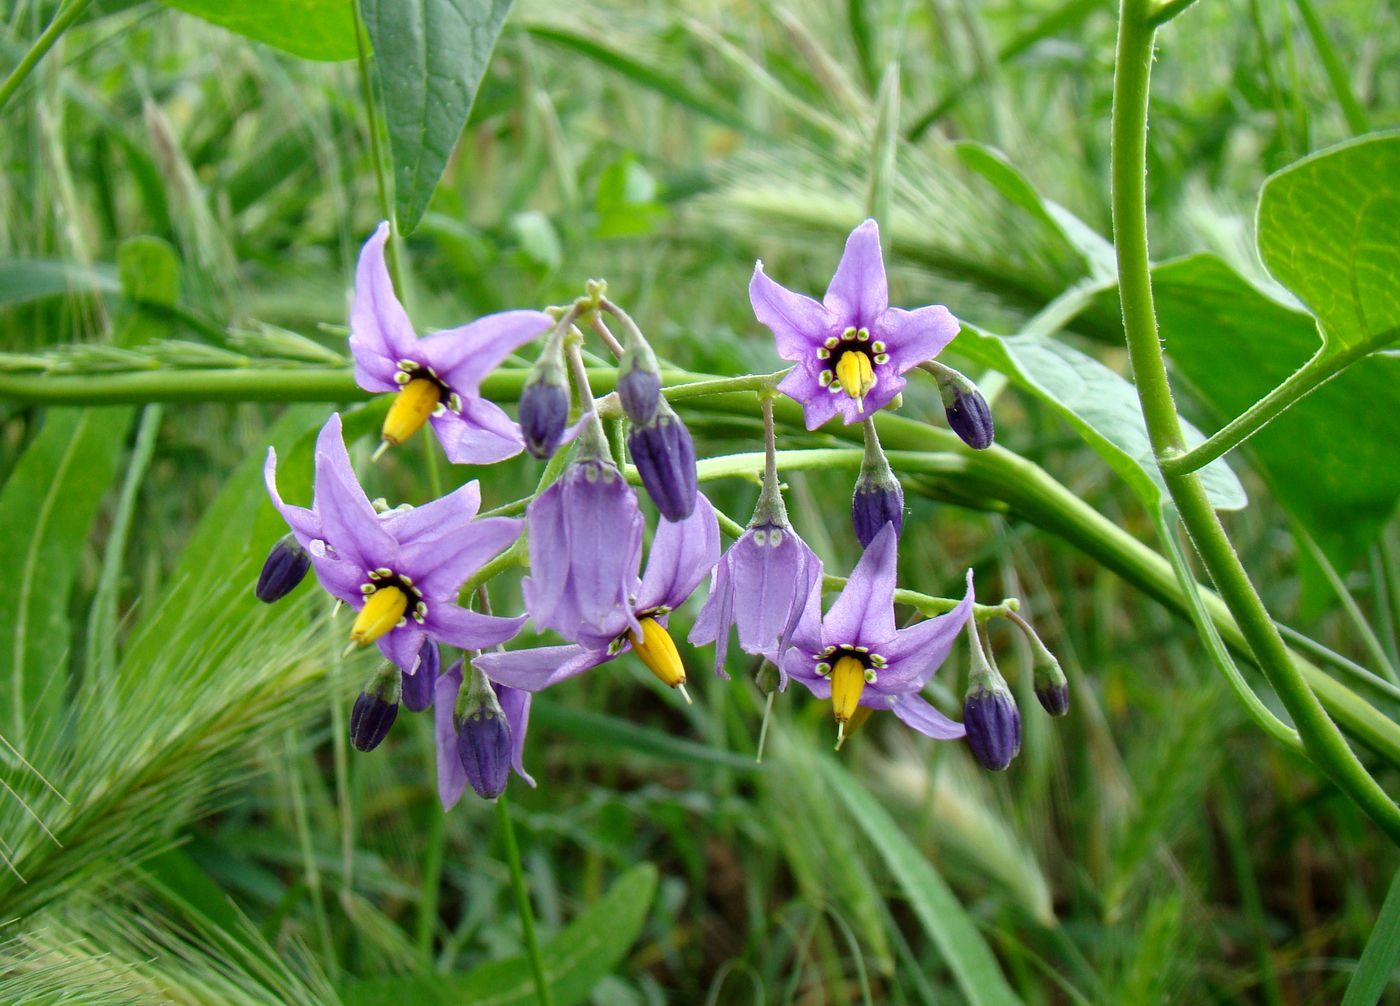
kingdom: Plantae
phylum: Tracheophyta
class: Magnoliopsida
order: Solanales
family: Solanaceae
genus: Solanum
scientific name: Solanum dulcamara
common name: Climbing nightshade
